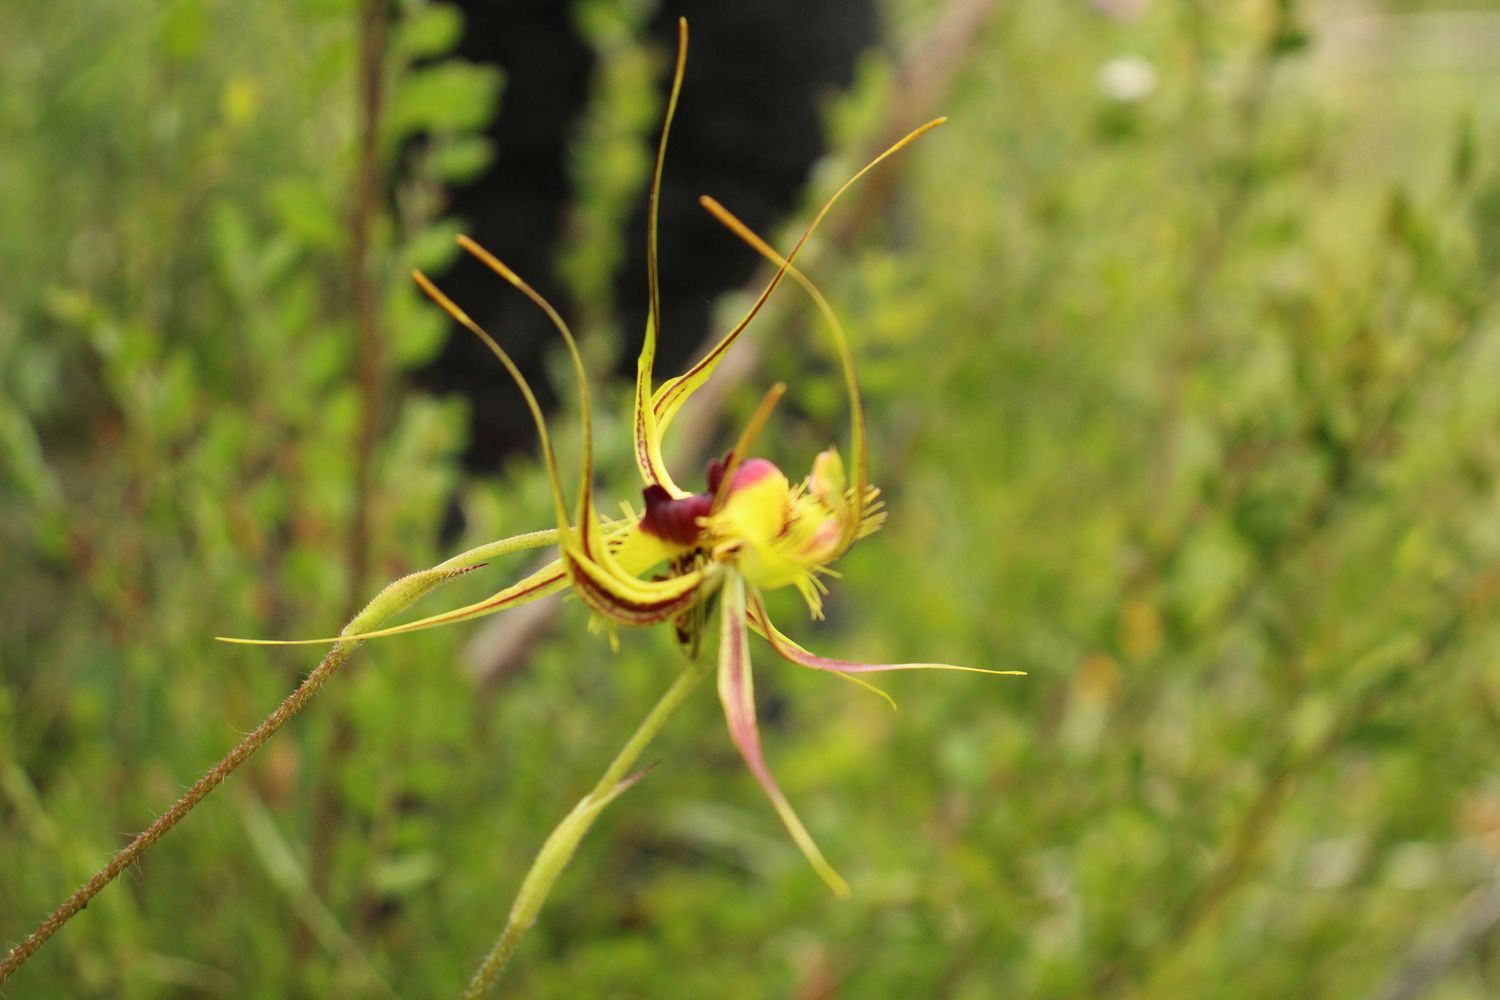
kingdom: Plantae
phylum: Tracheophyta
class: Liliopsida
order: Asparagales
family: Orchidaceae
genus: Caladenia
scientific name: Caladenia lobata
